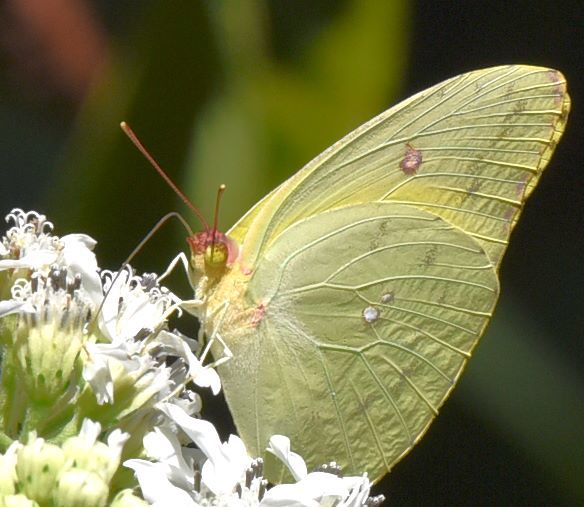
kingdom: Animalia
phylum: Arthropoda
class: Insecta
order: Lepidoptera
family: Pieridae
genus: Phoebis
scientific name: Phoebis sennae
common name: Cloudless sulphur
